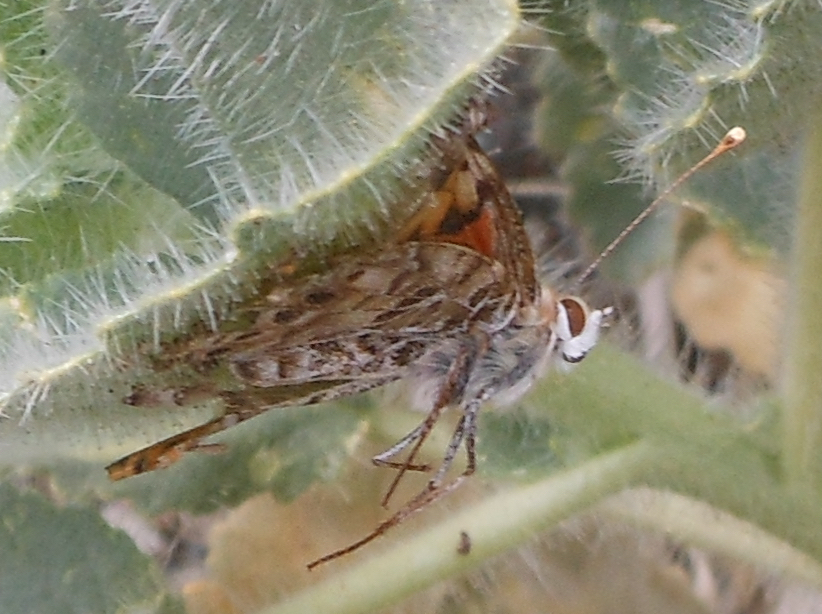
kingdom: Animalia
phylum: Arthropoda
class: Insecta
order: Lepidoptera
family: Nymphalidae
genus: Vanessa
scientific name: Vanessa cardui
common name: Painted lady
